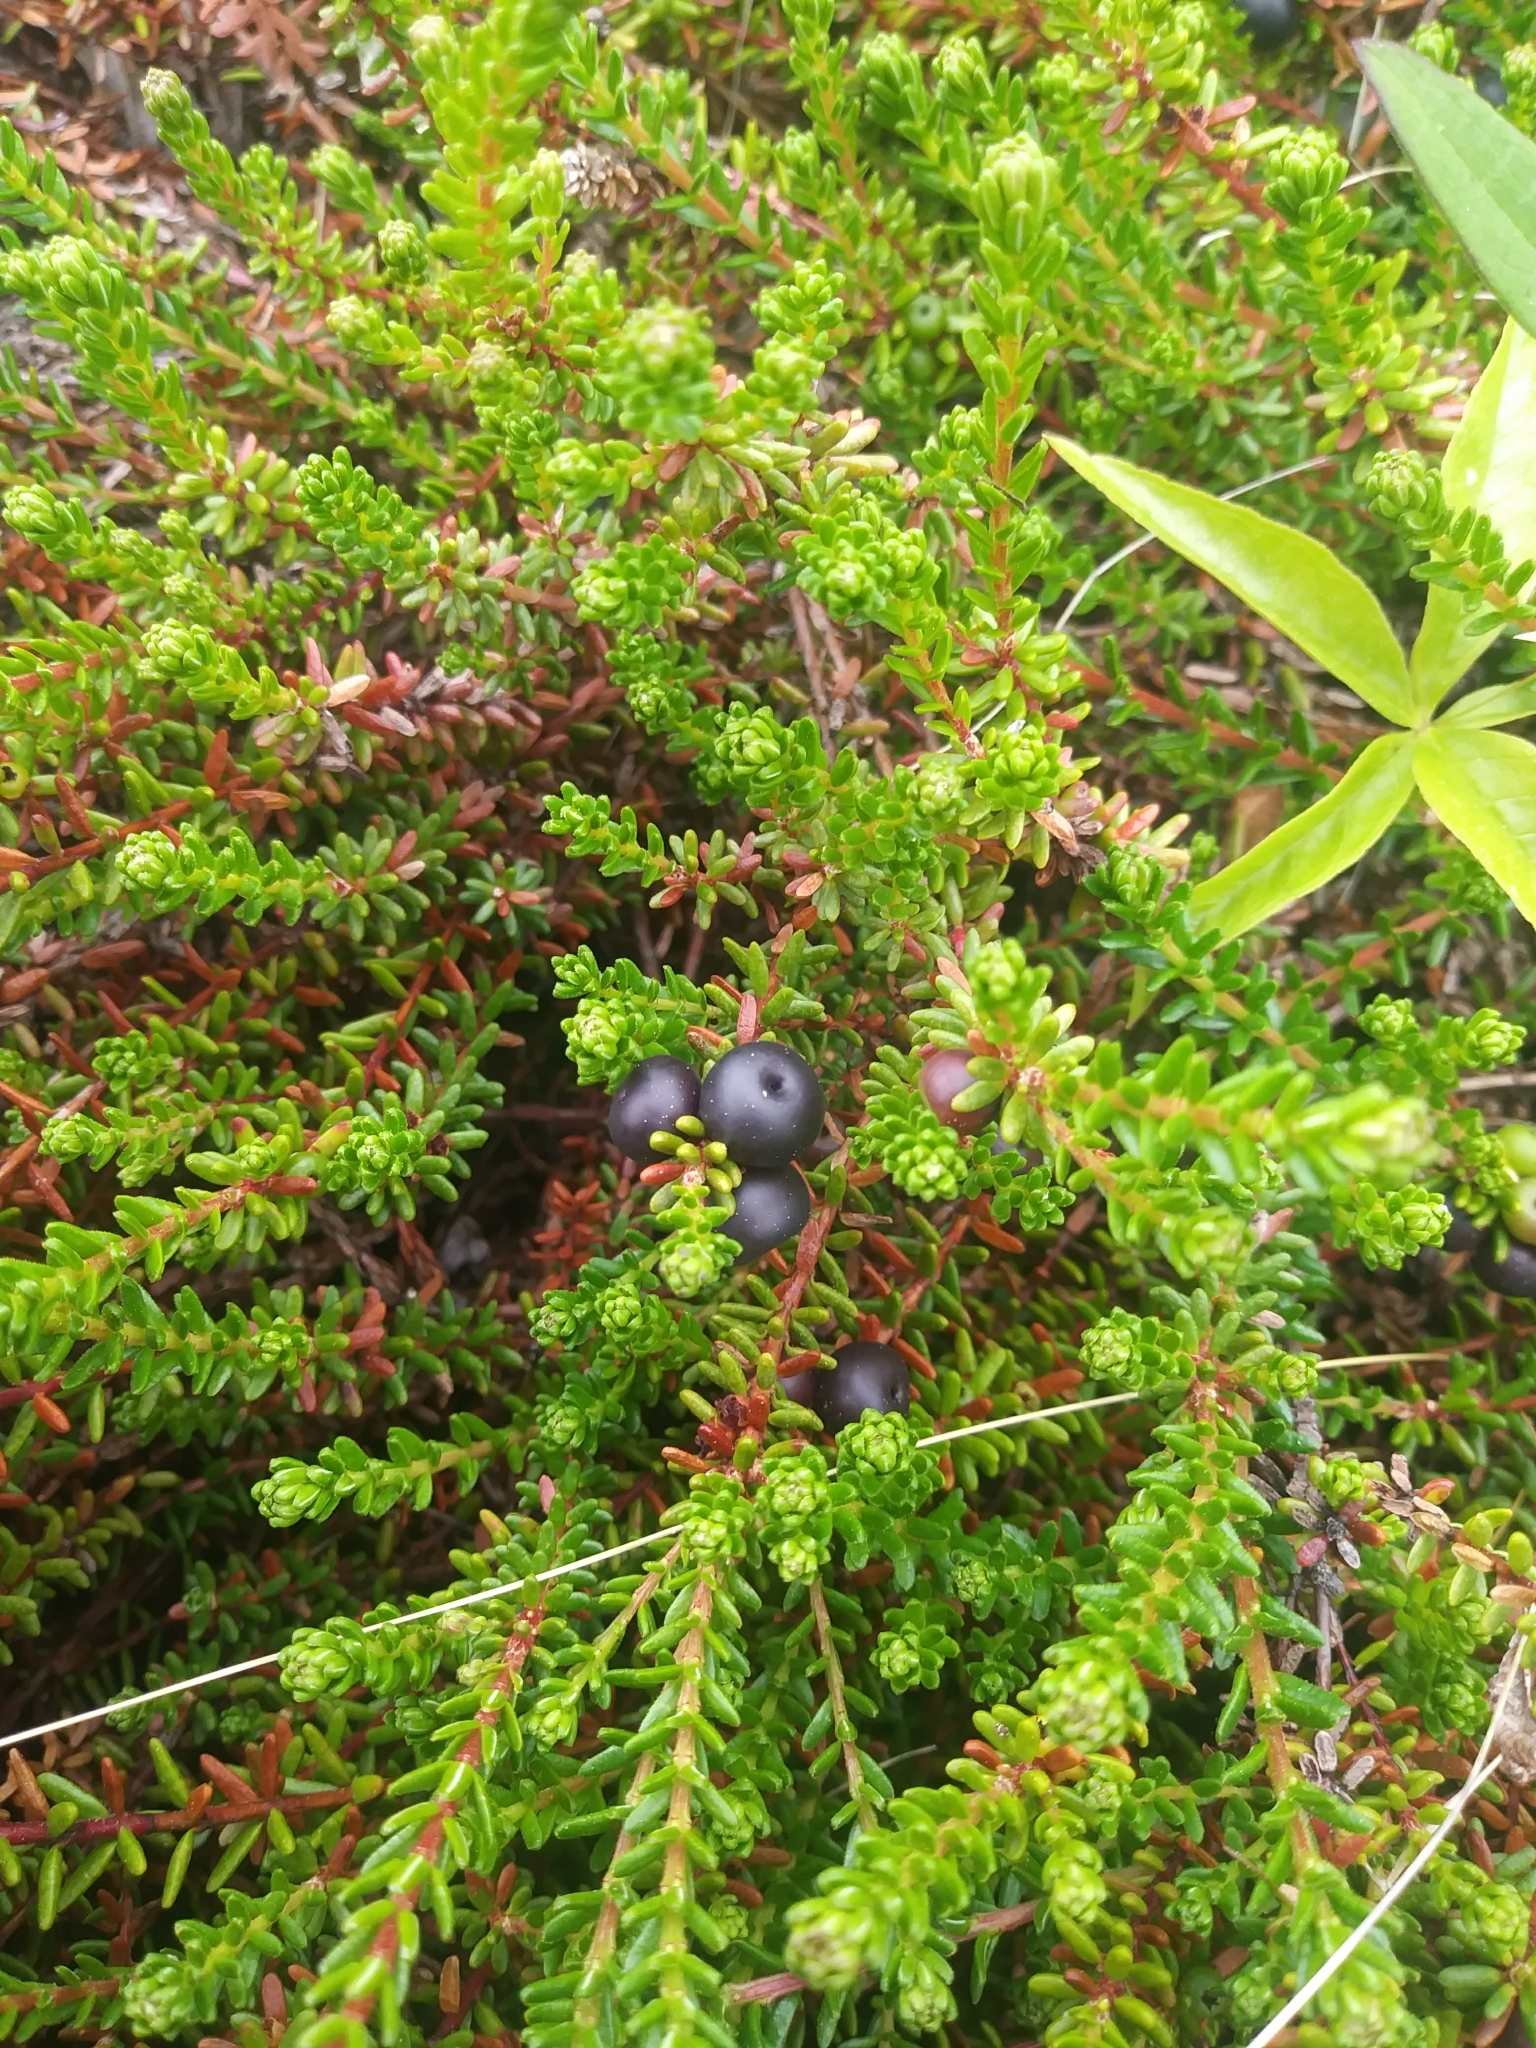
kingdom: Plantae
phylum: Tracheophyta
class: Magnoliopsida
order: Ericales
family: Ericaceae
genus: Empetrum
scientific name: Empetrum nigrum
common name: Black crowberry
